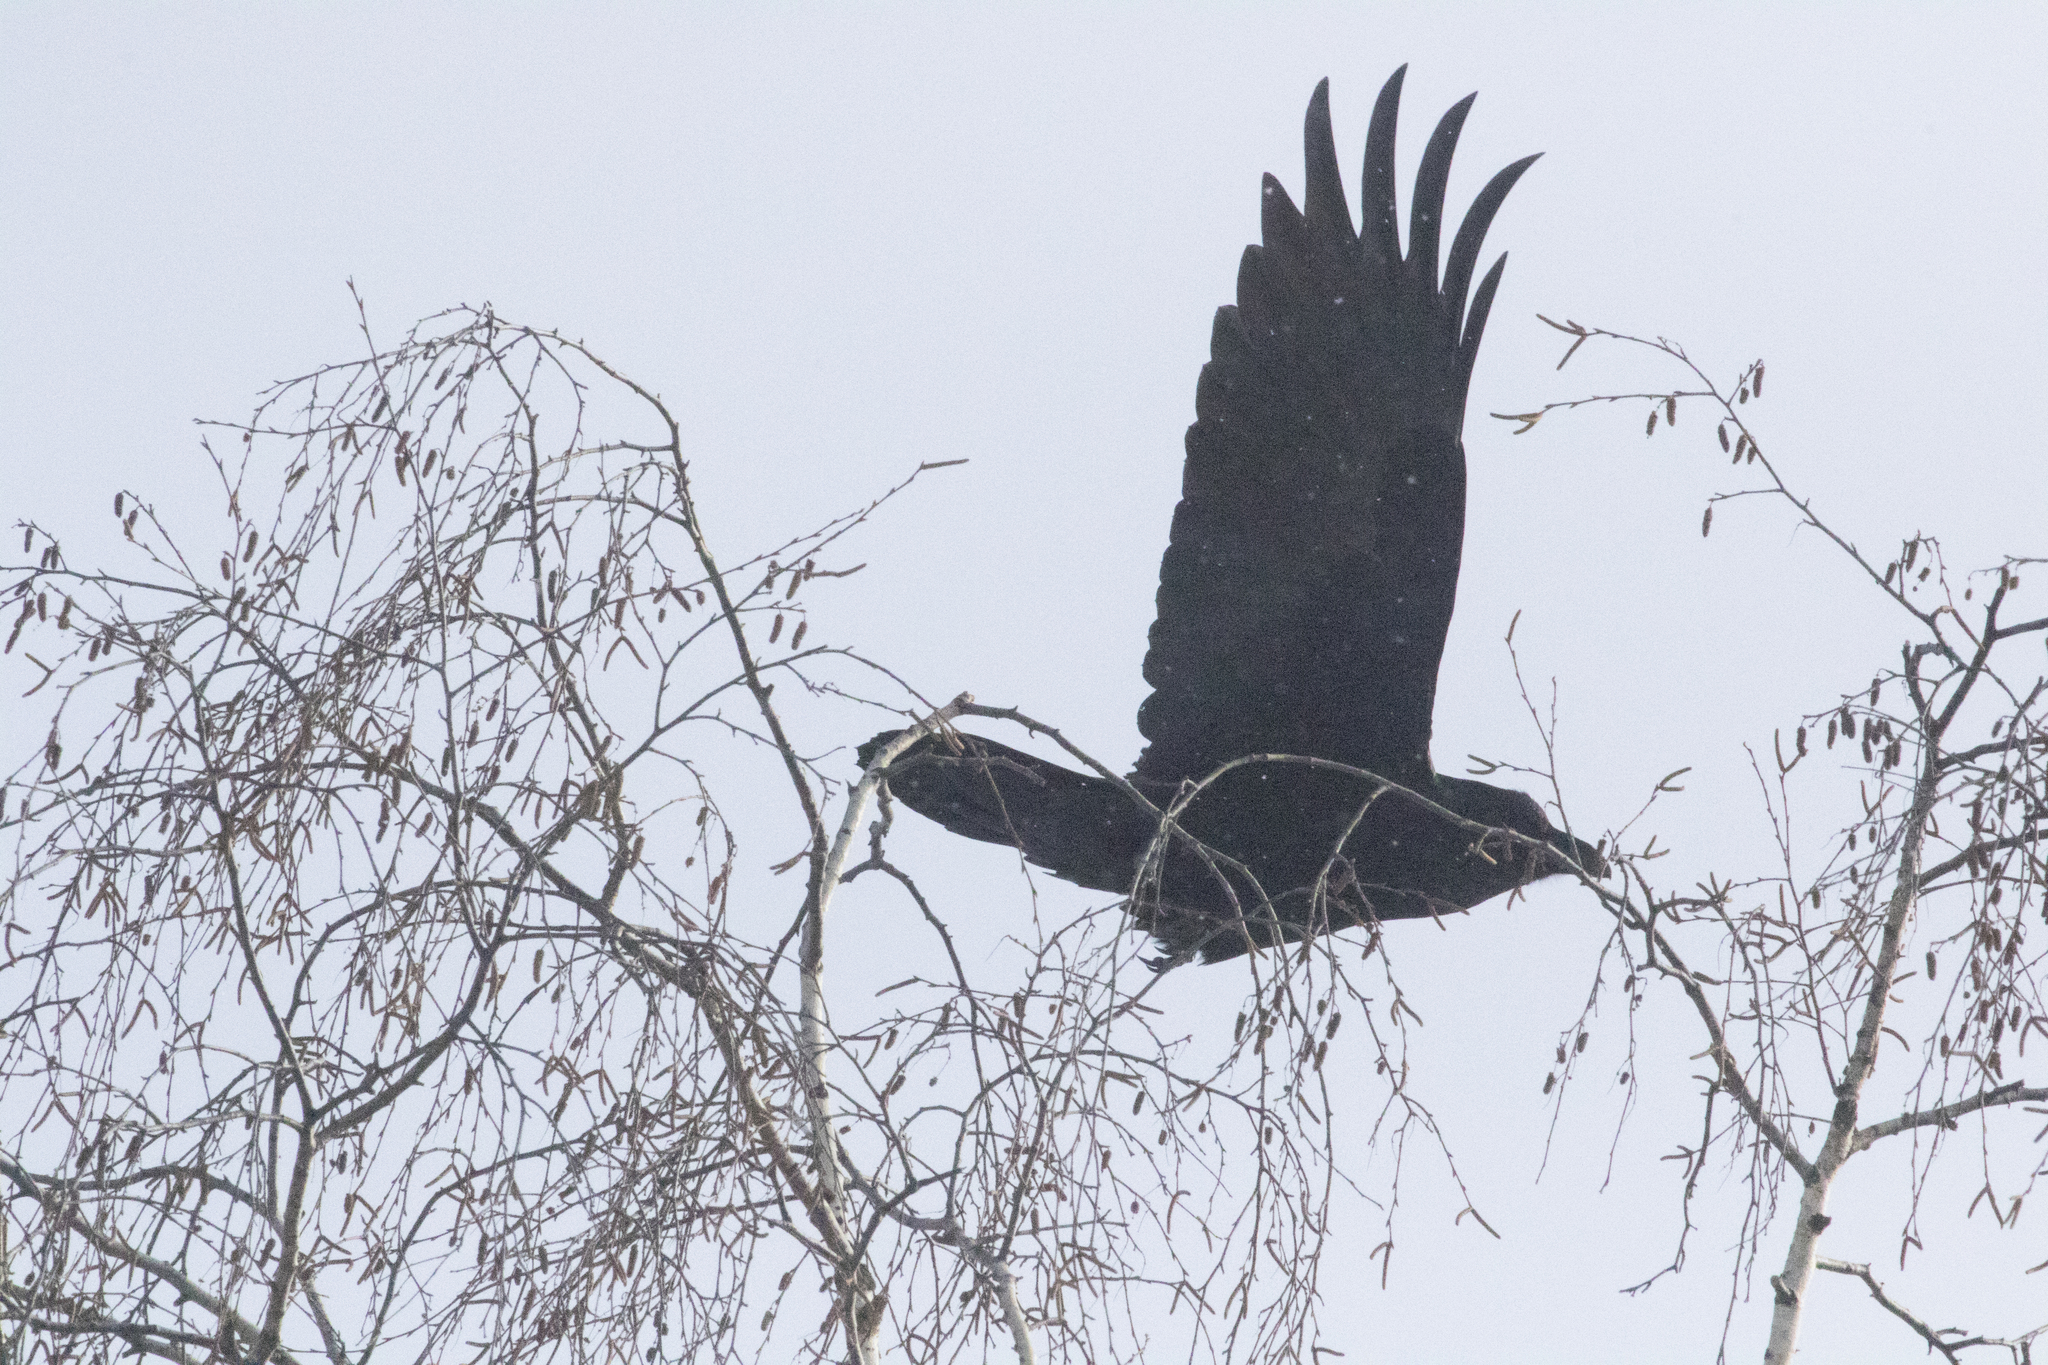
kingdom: Animalia
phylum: Chordata
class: Aves
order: Passeriformes
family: Corvidae
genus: Corvus
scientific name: Corvus corax
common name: Common raven
